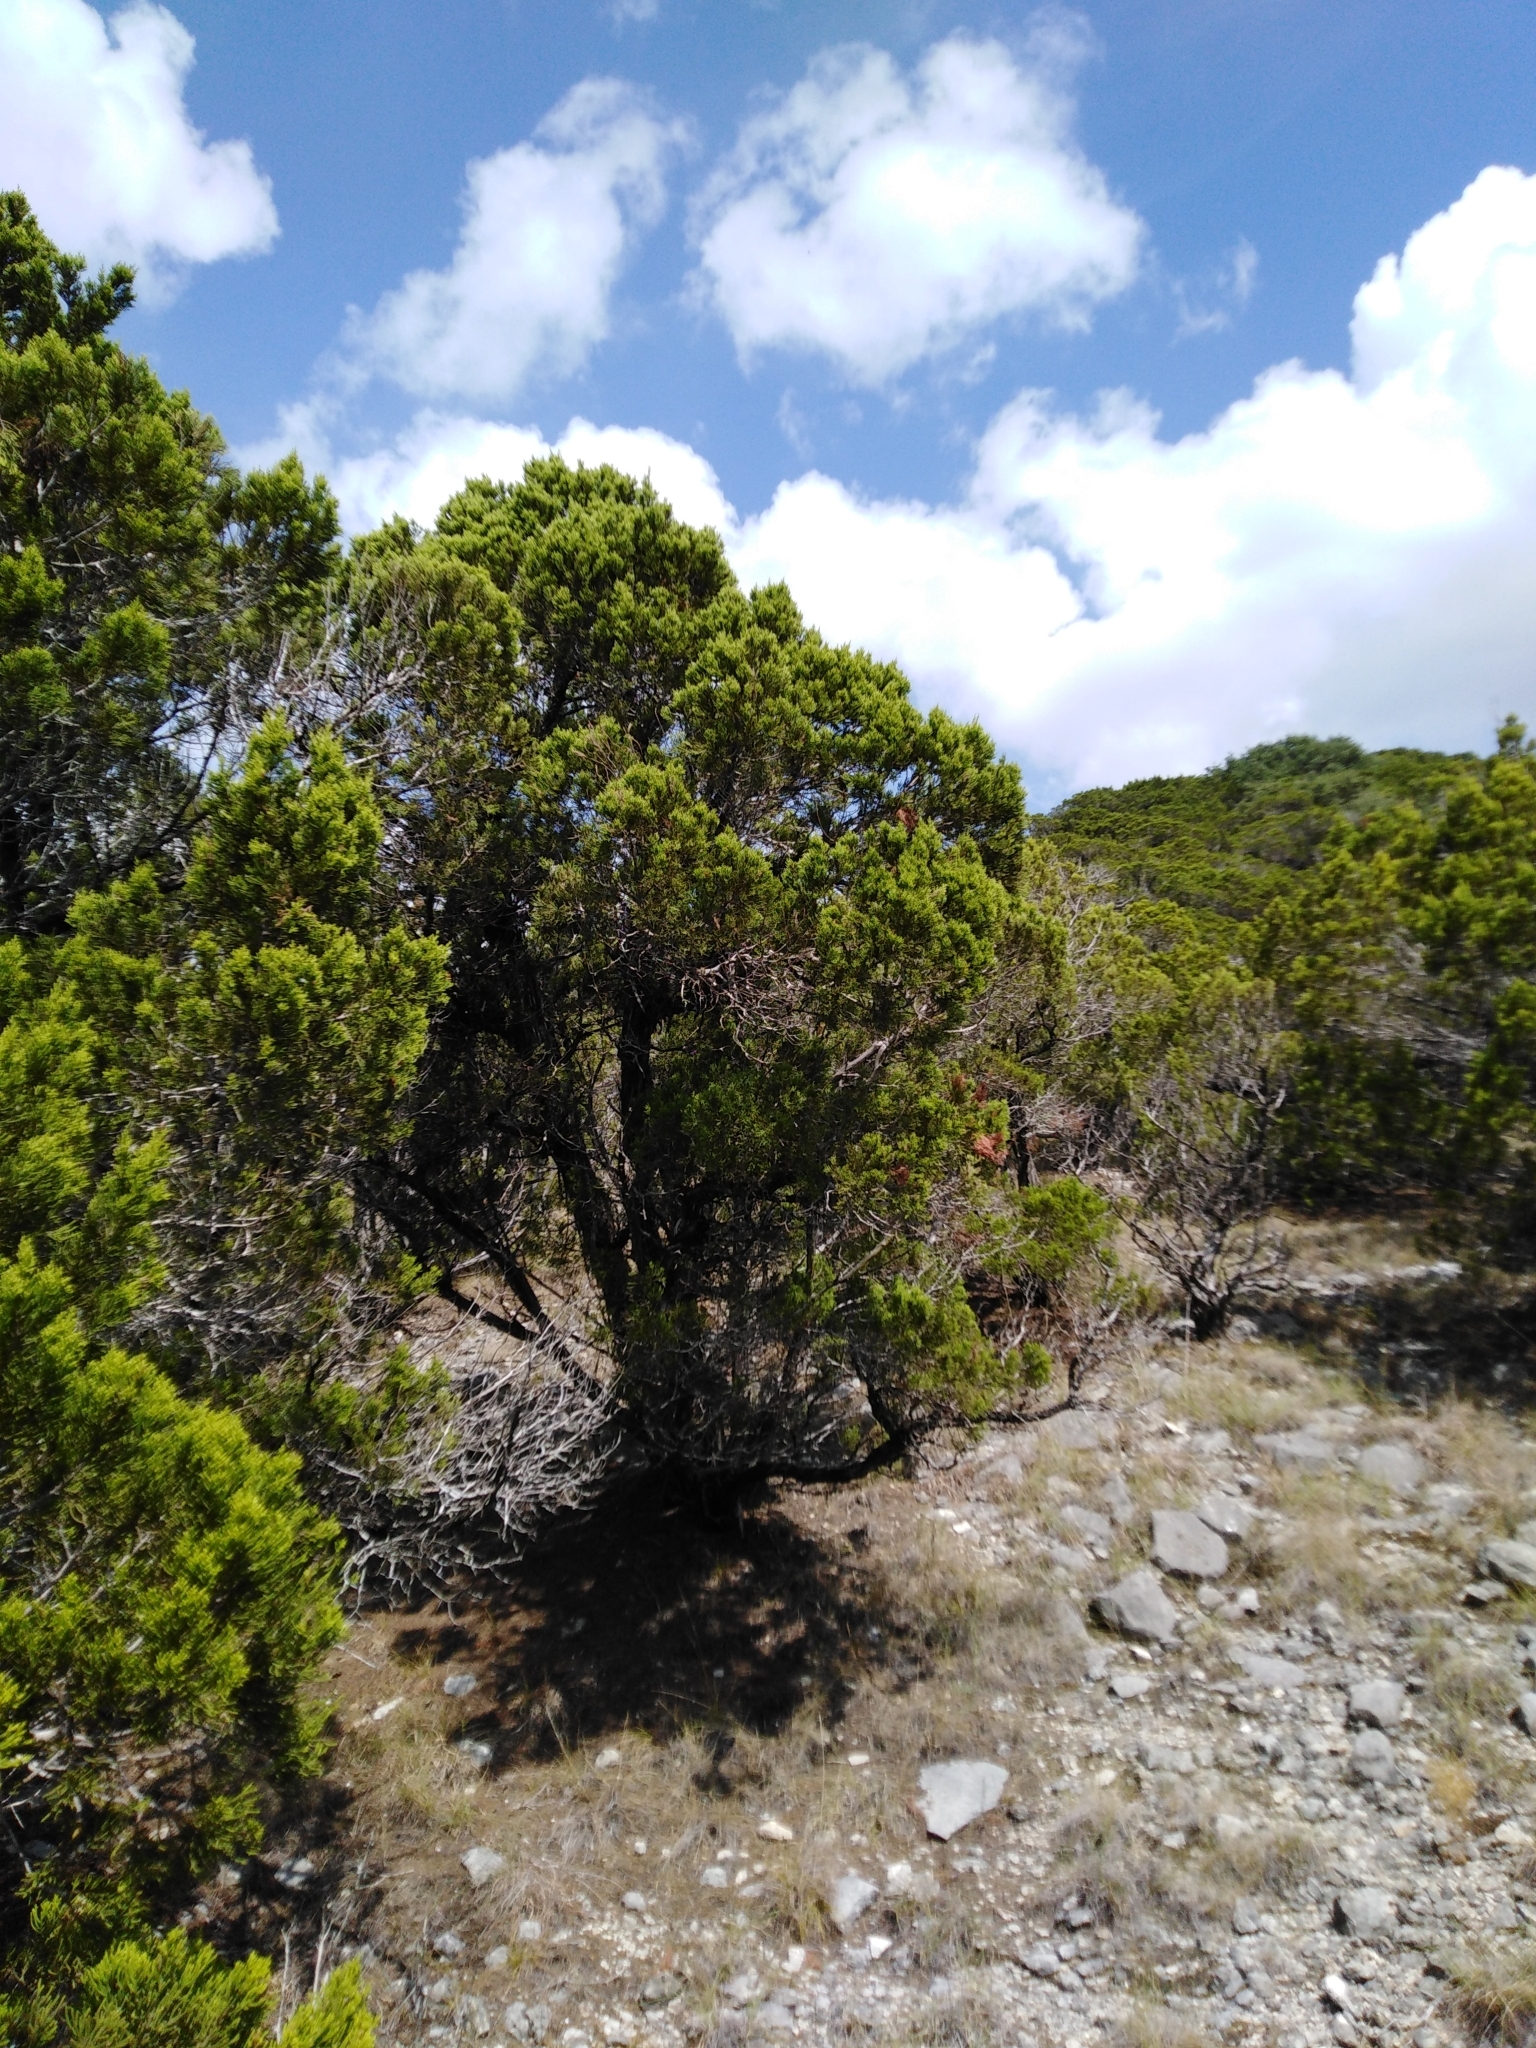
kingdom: Plantae
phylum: Tracheophyta
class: Pinopsida
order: Pinales
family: Cupressaceae
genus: Juniperus
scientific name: Juniperus ashei
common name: Mexican juniper
